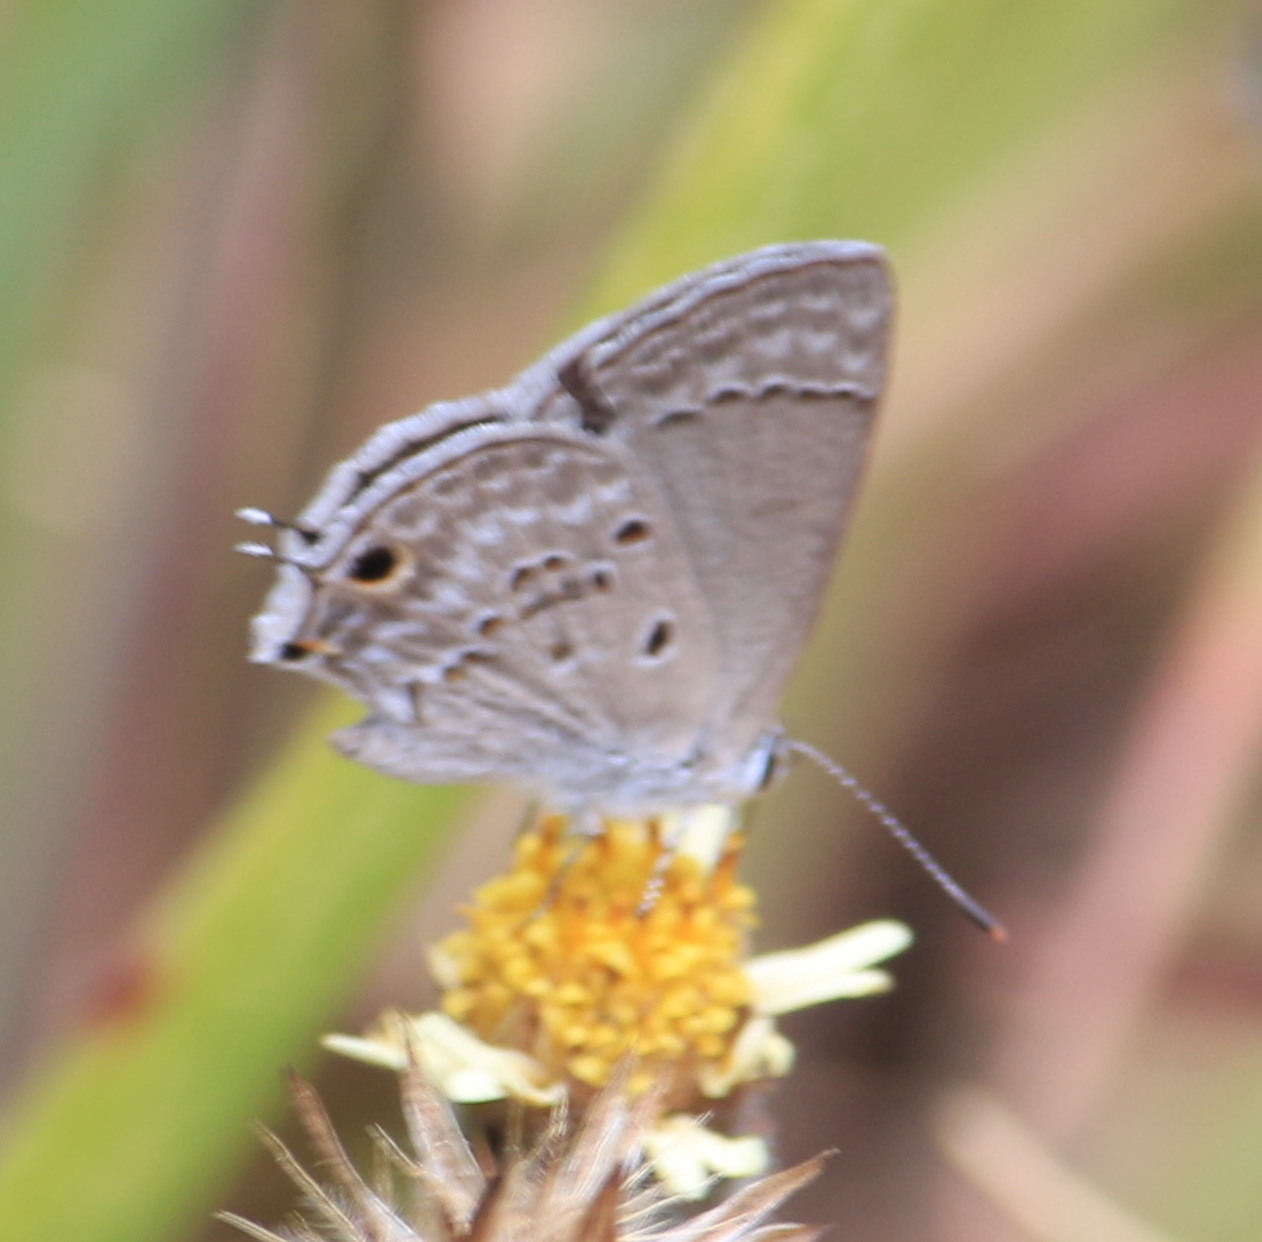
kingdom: Animalia
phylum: Arthropoda
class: Insecta
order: Lepidoptera
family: Lycaenidae
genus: Callicista
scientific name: Callicista columella
